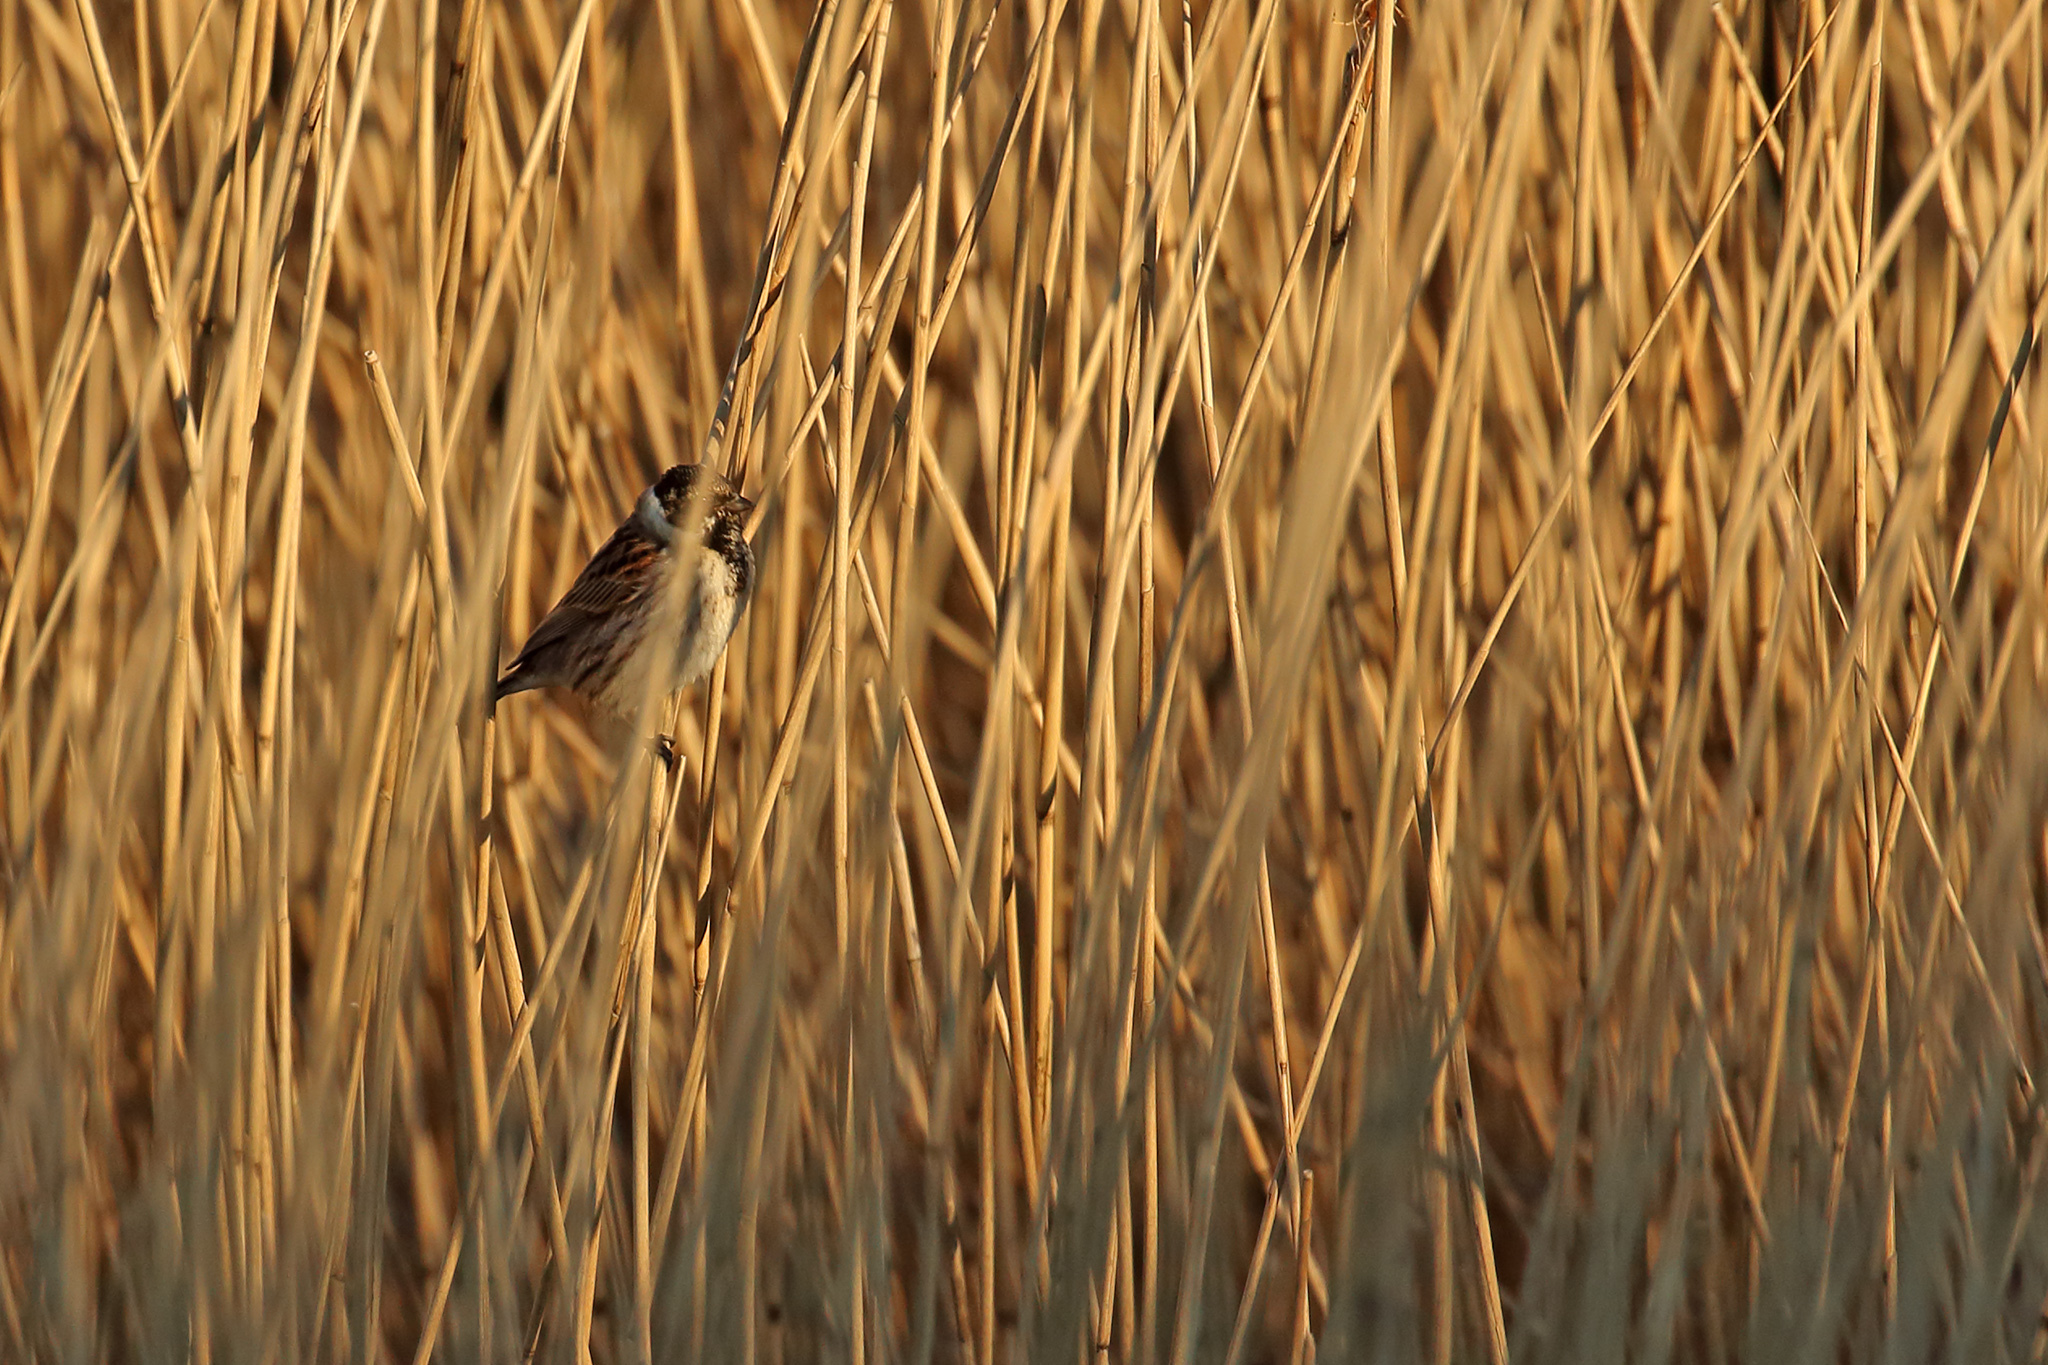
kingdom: Animalia
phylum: Chordata
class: Aves
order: Passeriformes
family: Emberizidae
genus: Emberiza
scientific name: Emberiza schoeniclus
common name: Reed bunting
